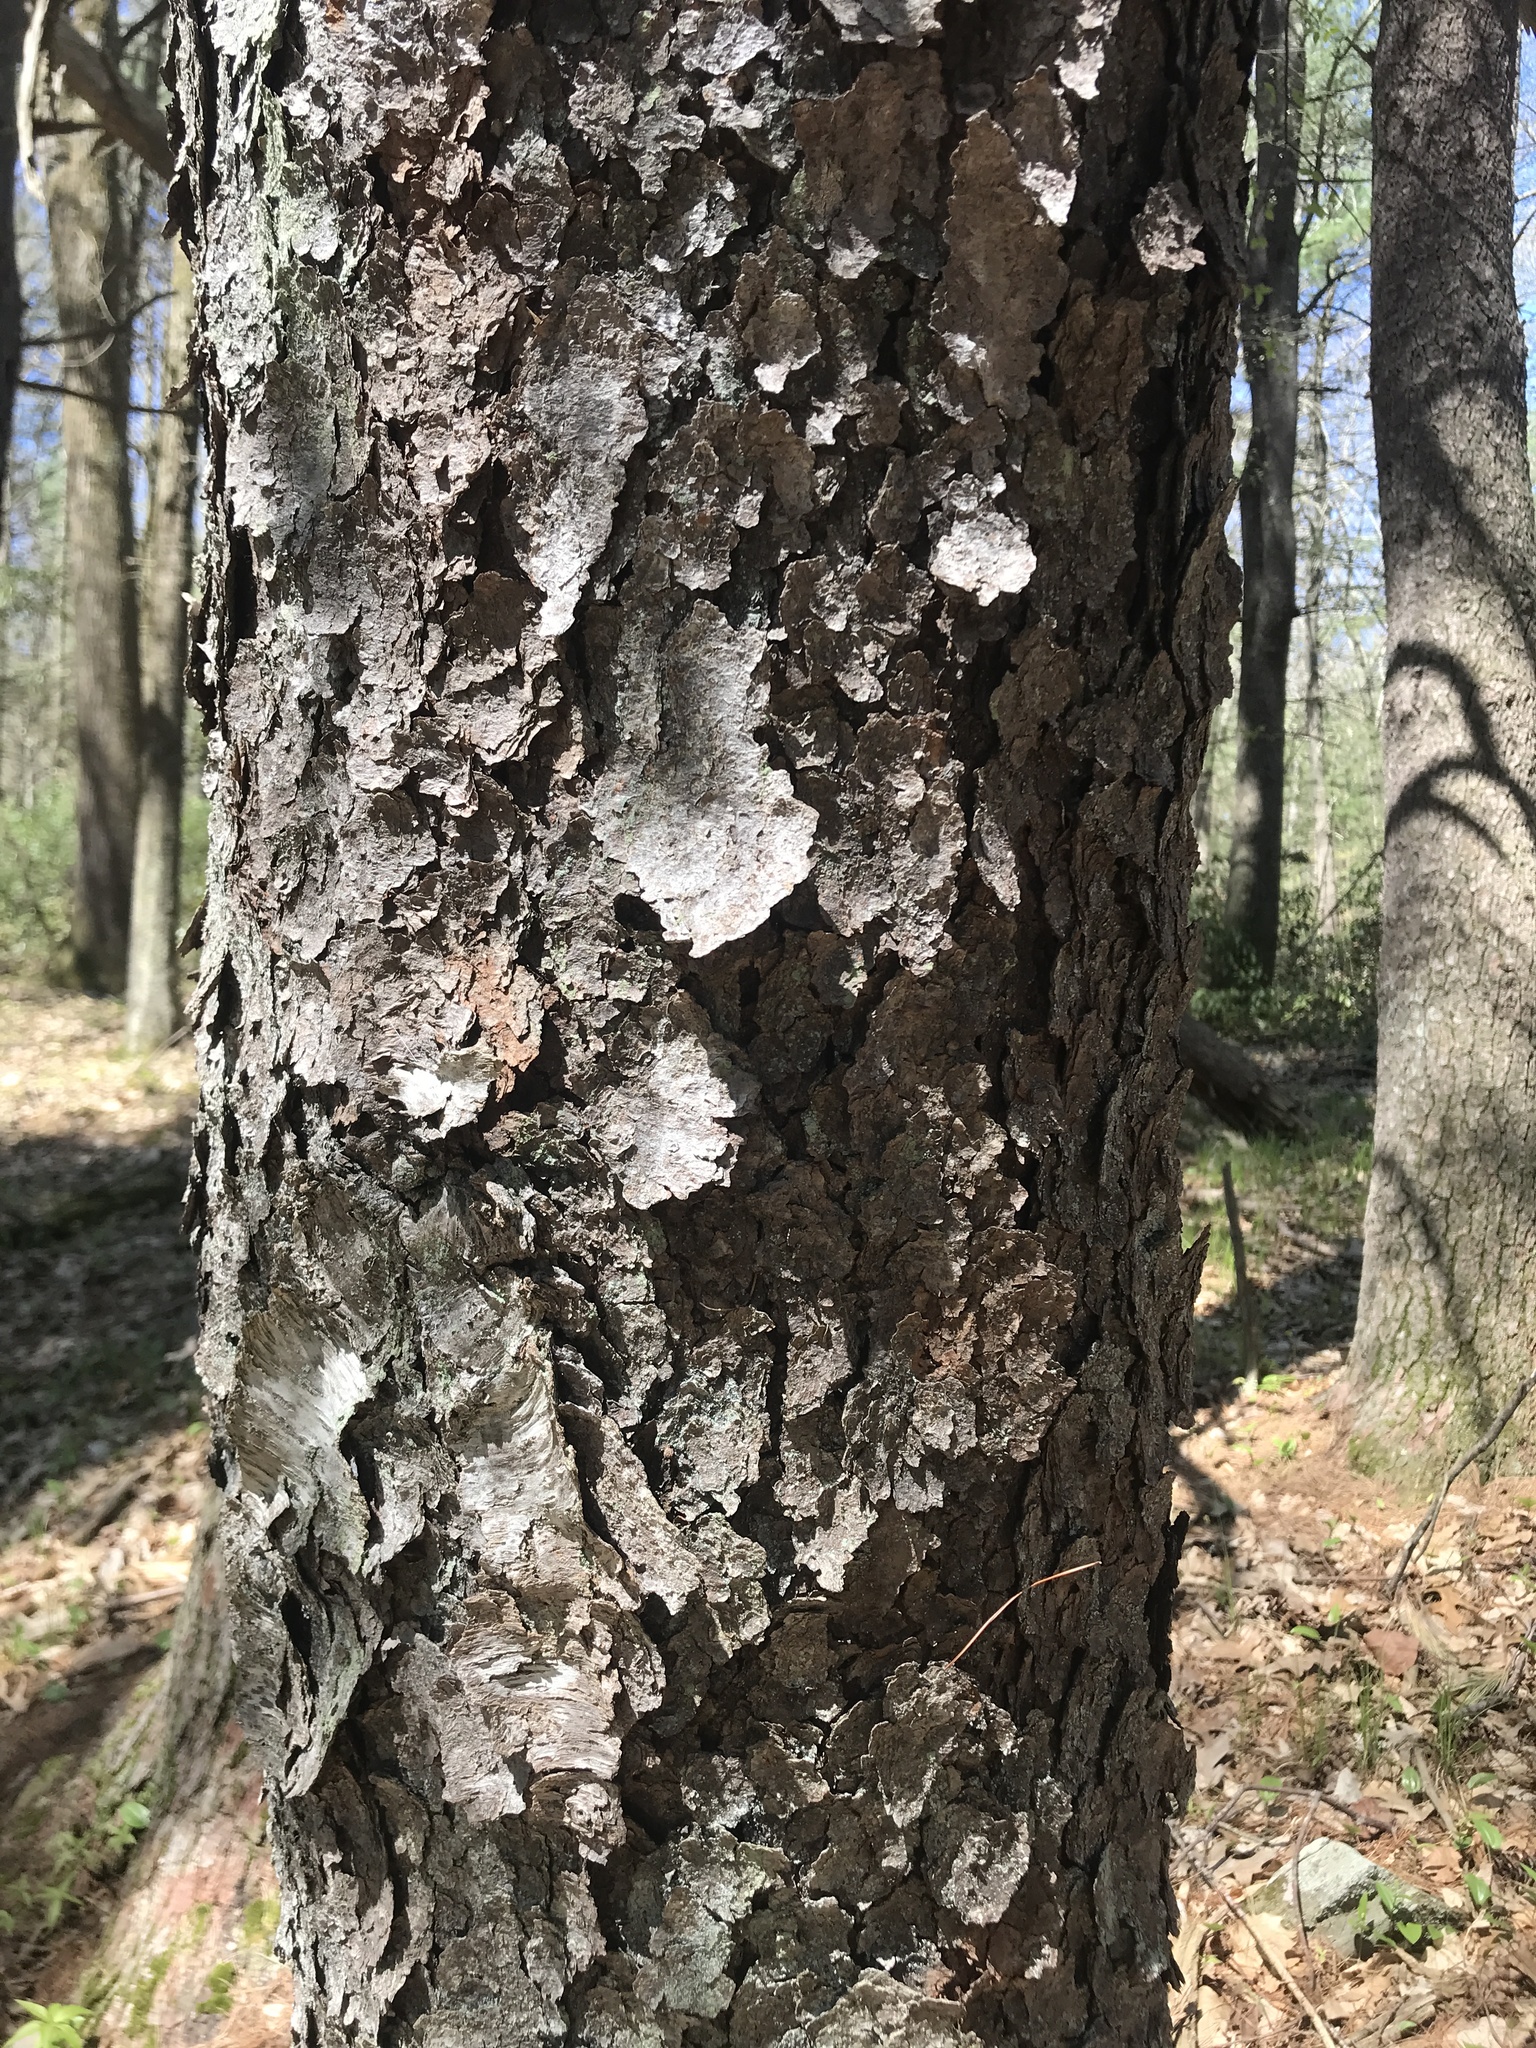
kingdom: Plantae
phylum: Tracheophyta
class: Magnoliopsida
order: Rosales
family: Rosaceae
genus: Prunus
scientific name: Prunus serotina
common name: Black cherry
